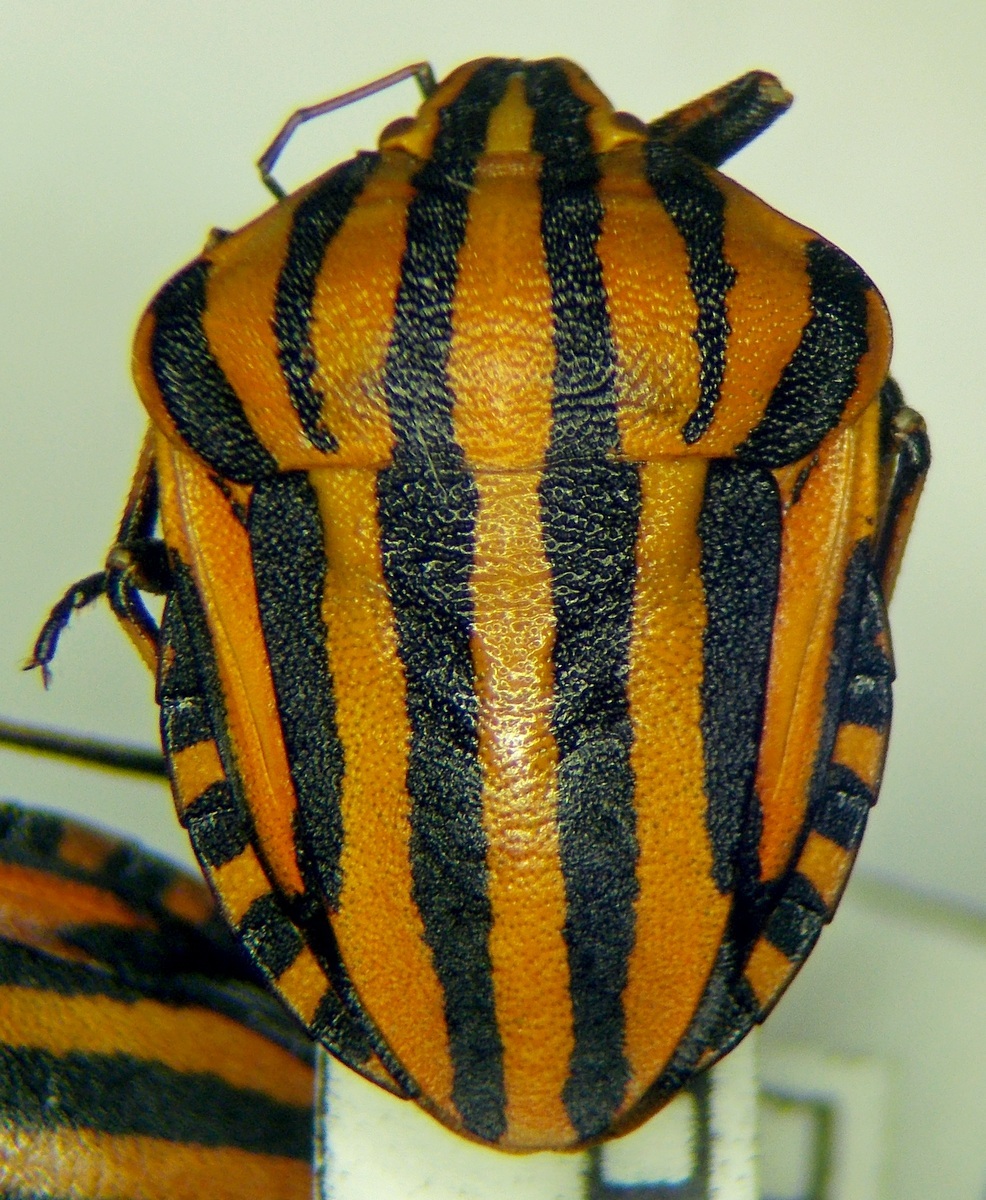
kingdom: Animalia
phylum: Arthropoda
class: Insecta
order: Hemiptera
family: Pentatomidae
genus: Graphosoma
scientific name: Graphosoma italicum
